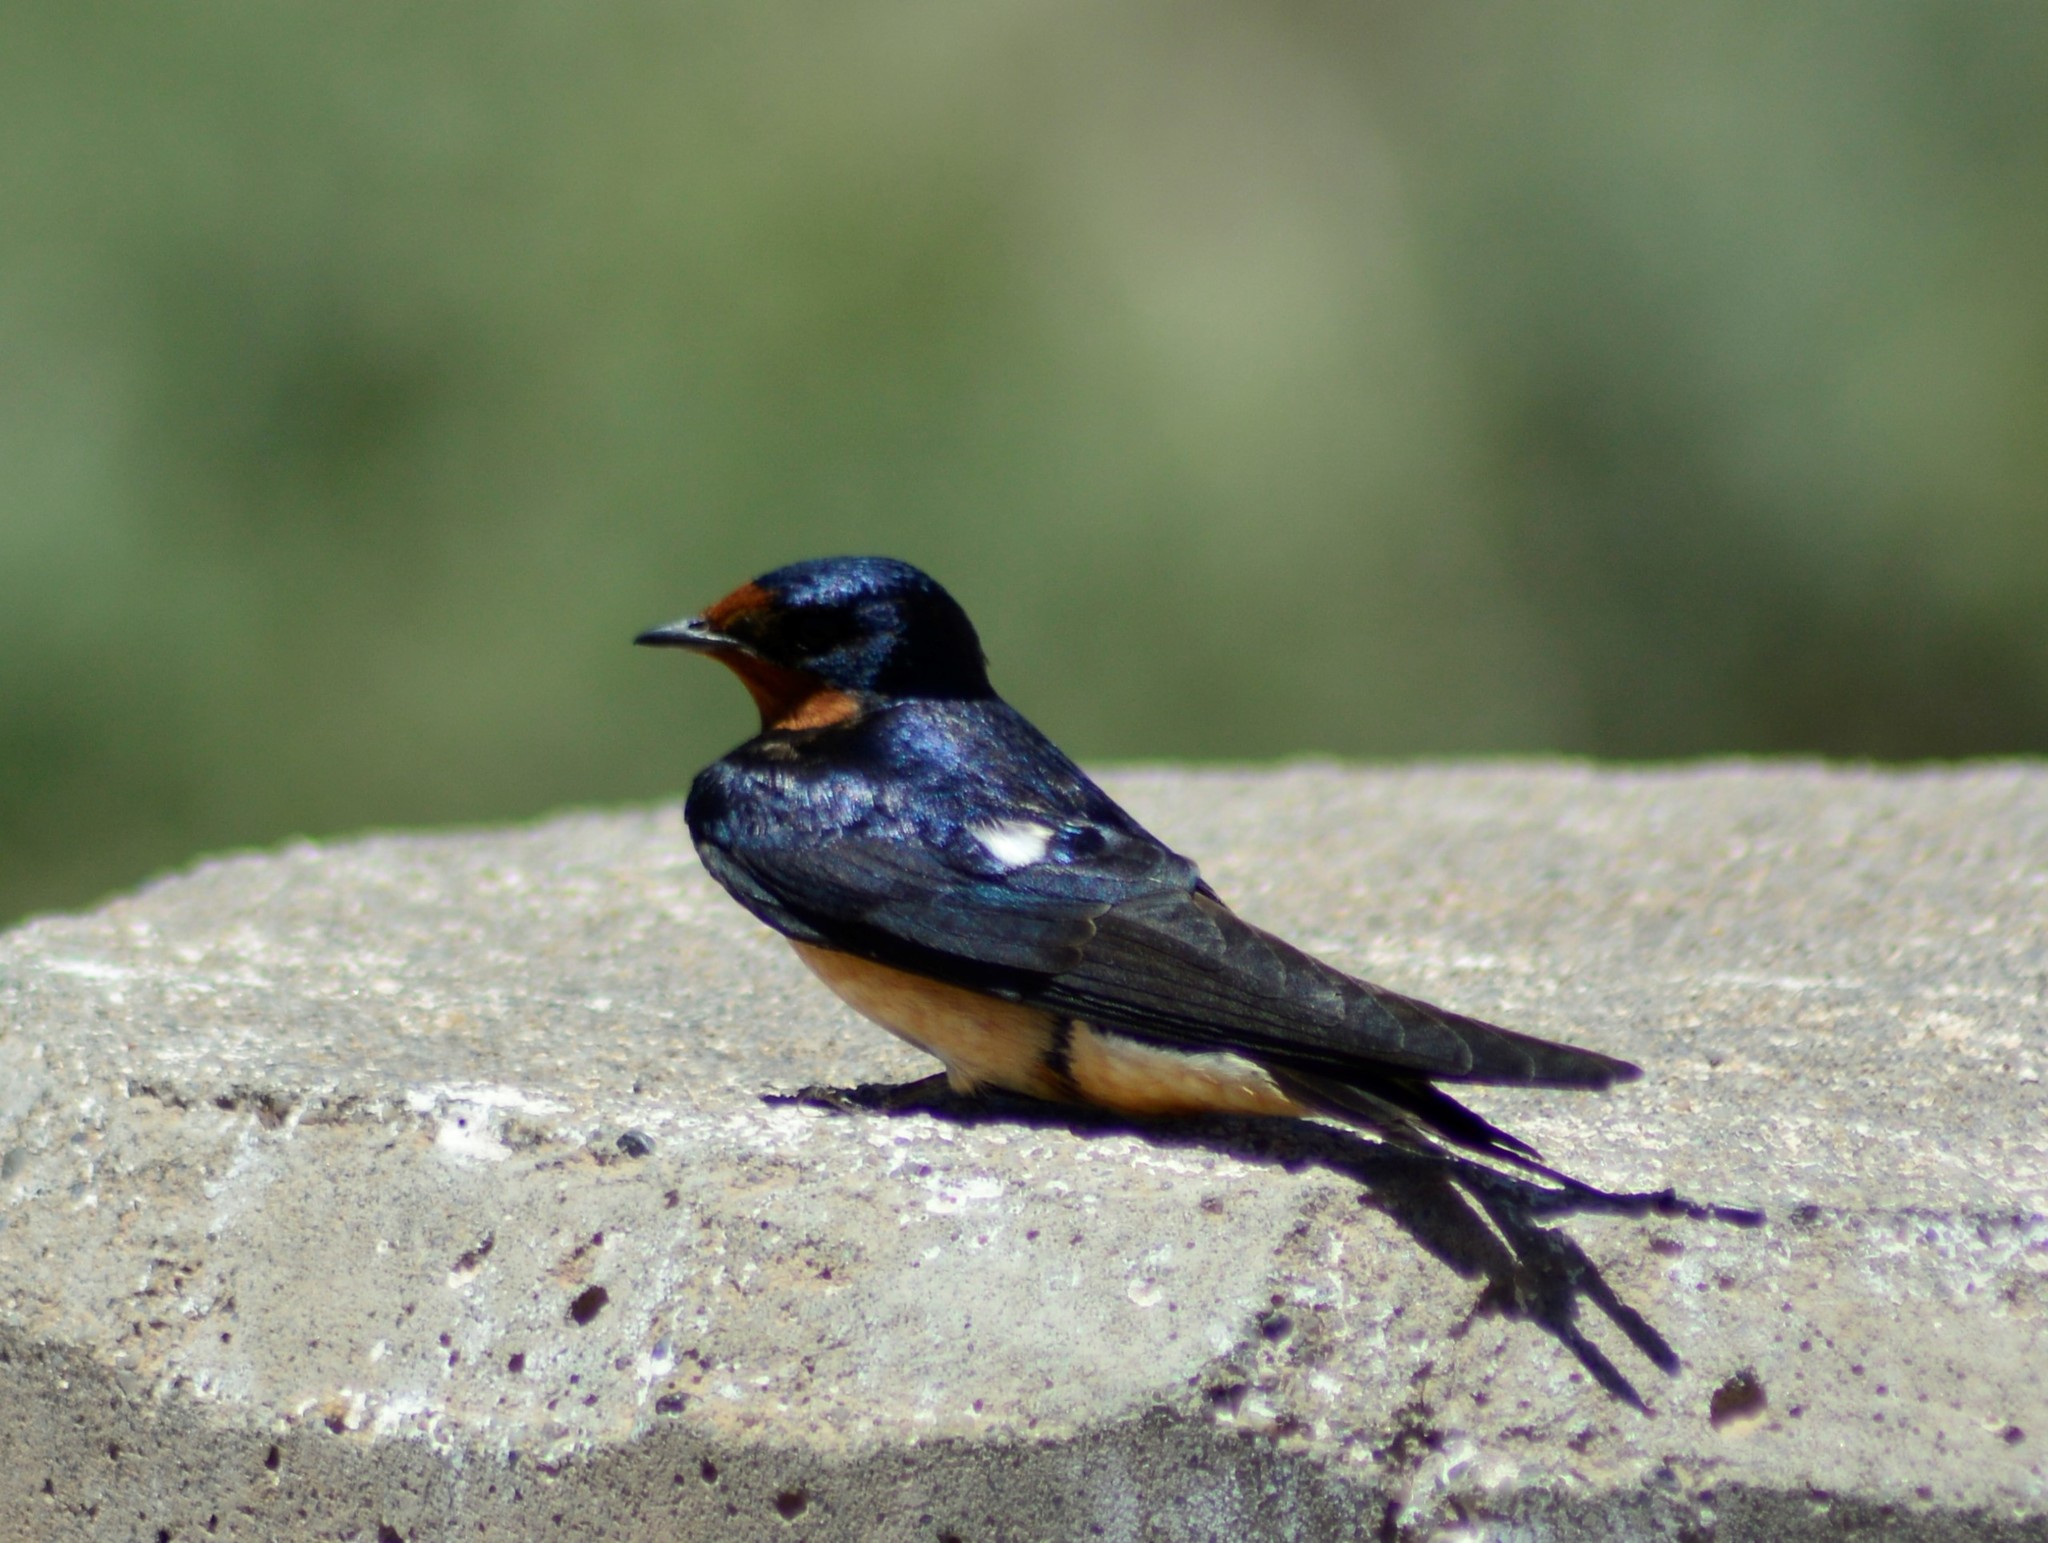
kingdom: Animalia
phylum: Chordata
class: Aves
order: Passeriformes
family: Hirundinidae
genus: Hirundo
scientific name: Hirundo rustica
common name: Barn swallow
